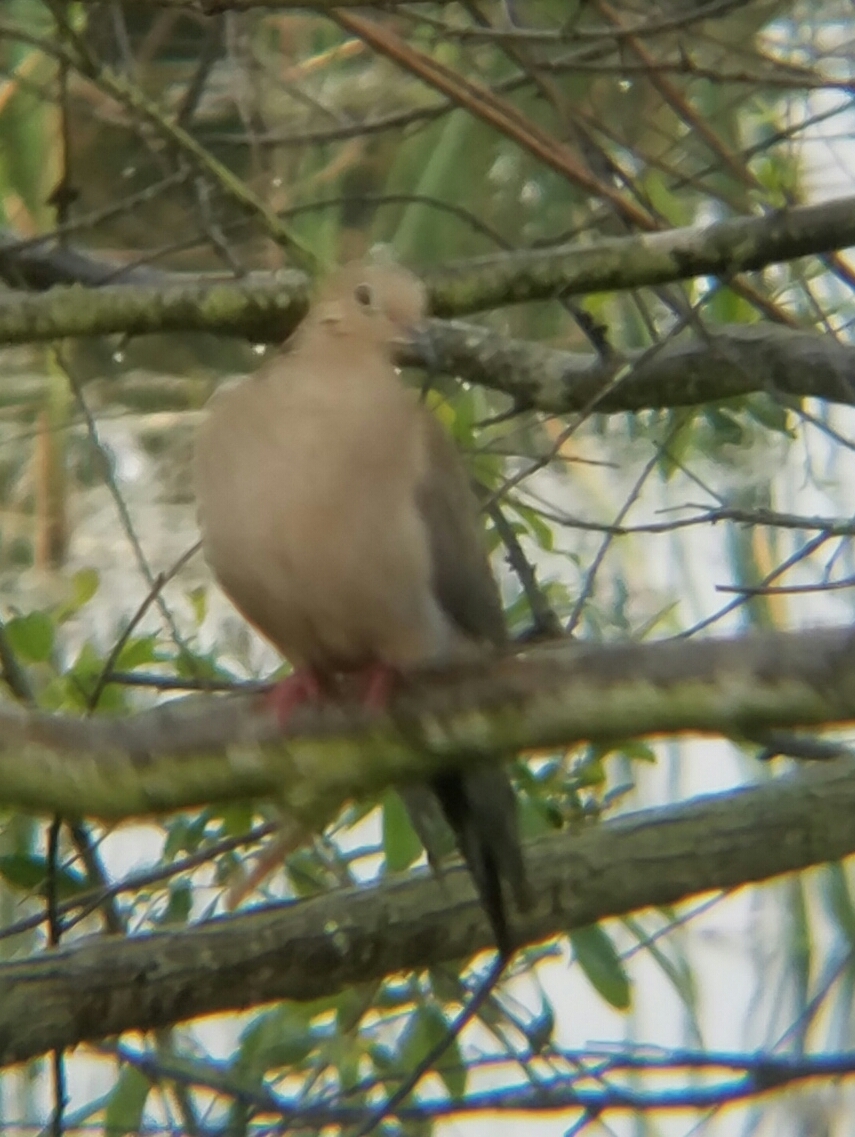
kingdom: Animalia
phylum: Chordata
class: Aves
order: Columbiformes
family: Columbidae
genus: Zenaida
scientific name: Zenaida macroura
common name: Mourning dove
